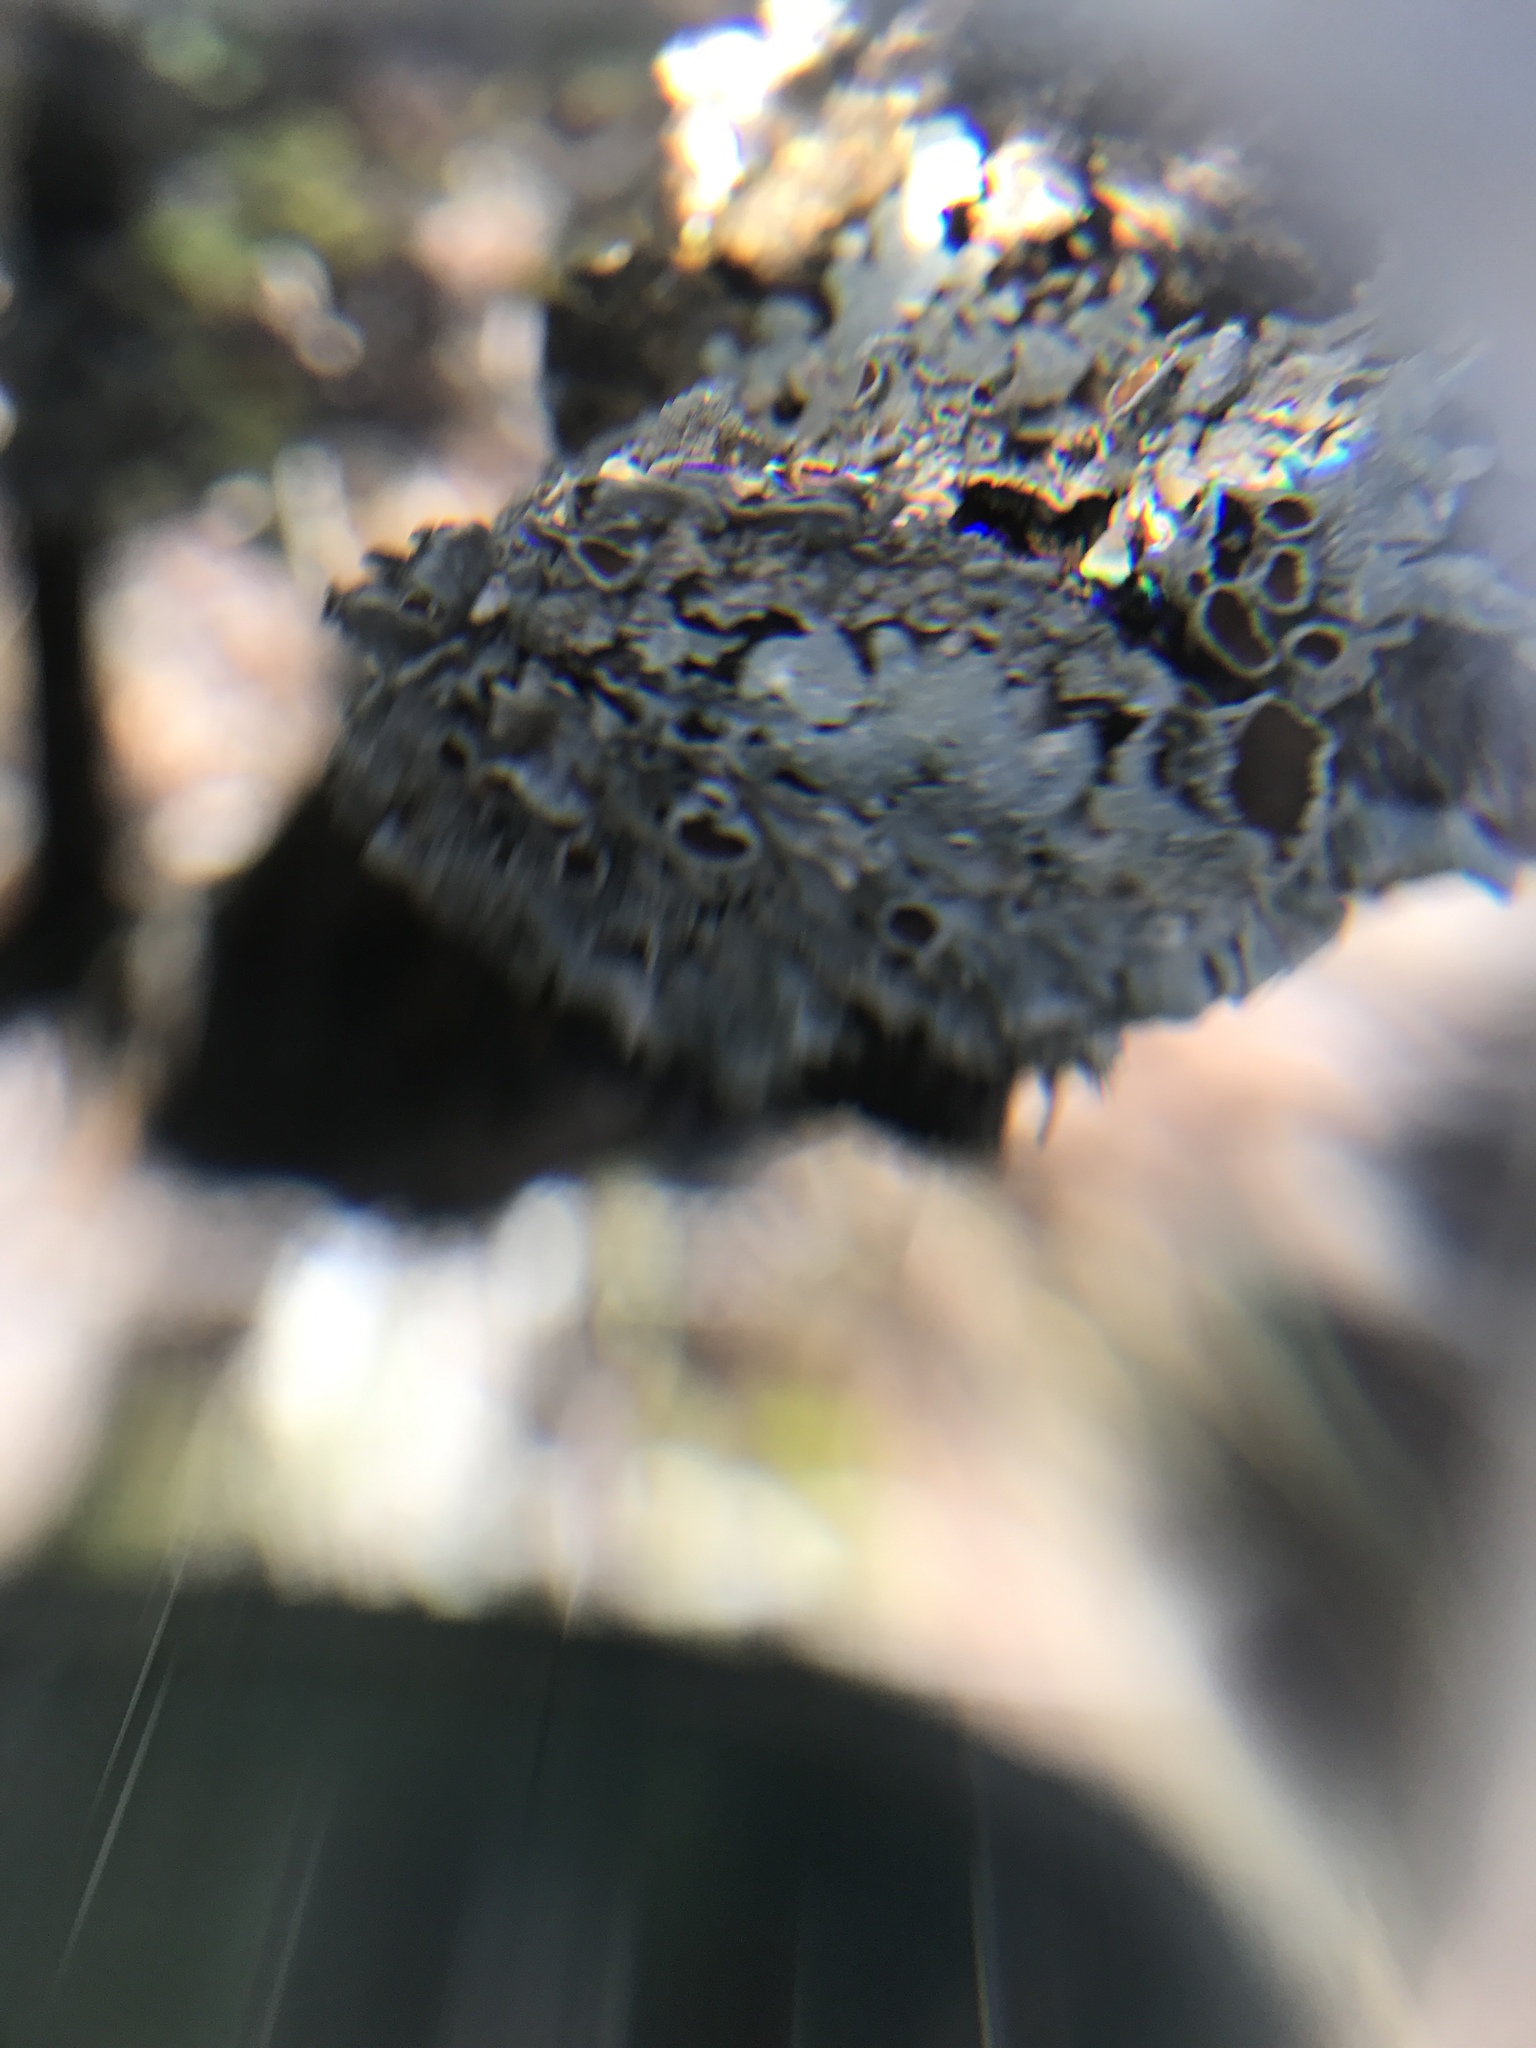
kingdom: Fungi
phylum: Ascomycota
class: Lecanoromycetes
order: Caliciales
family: Physciaceae
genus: Physcia
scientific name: Physcia aipolia
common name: Hoary rosette lichen
